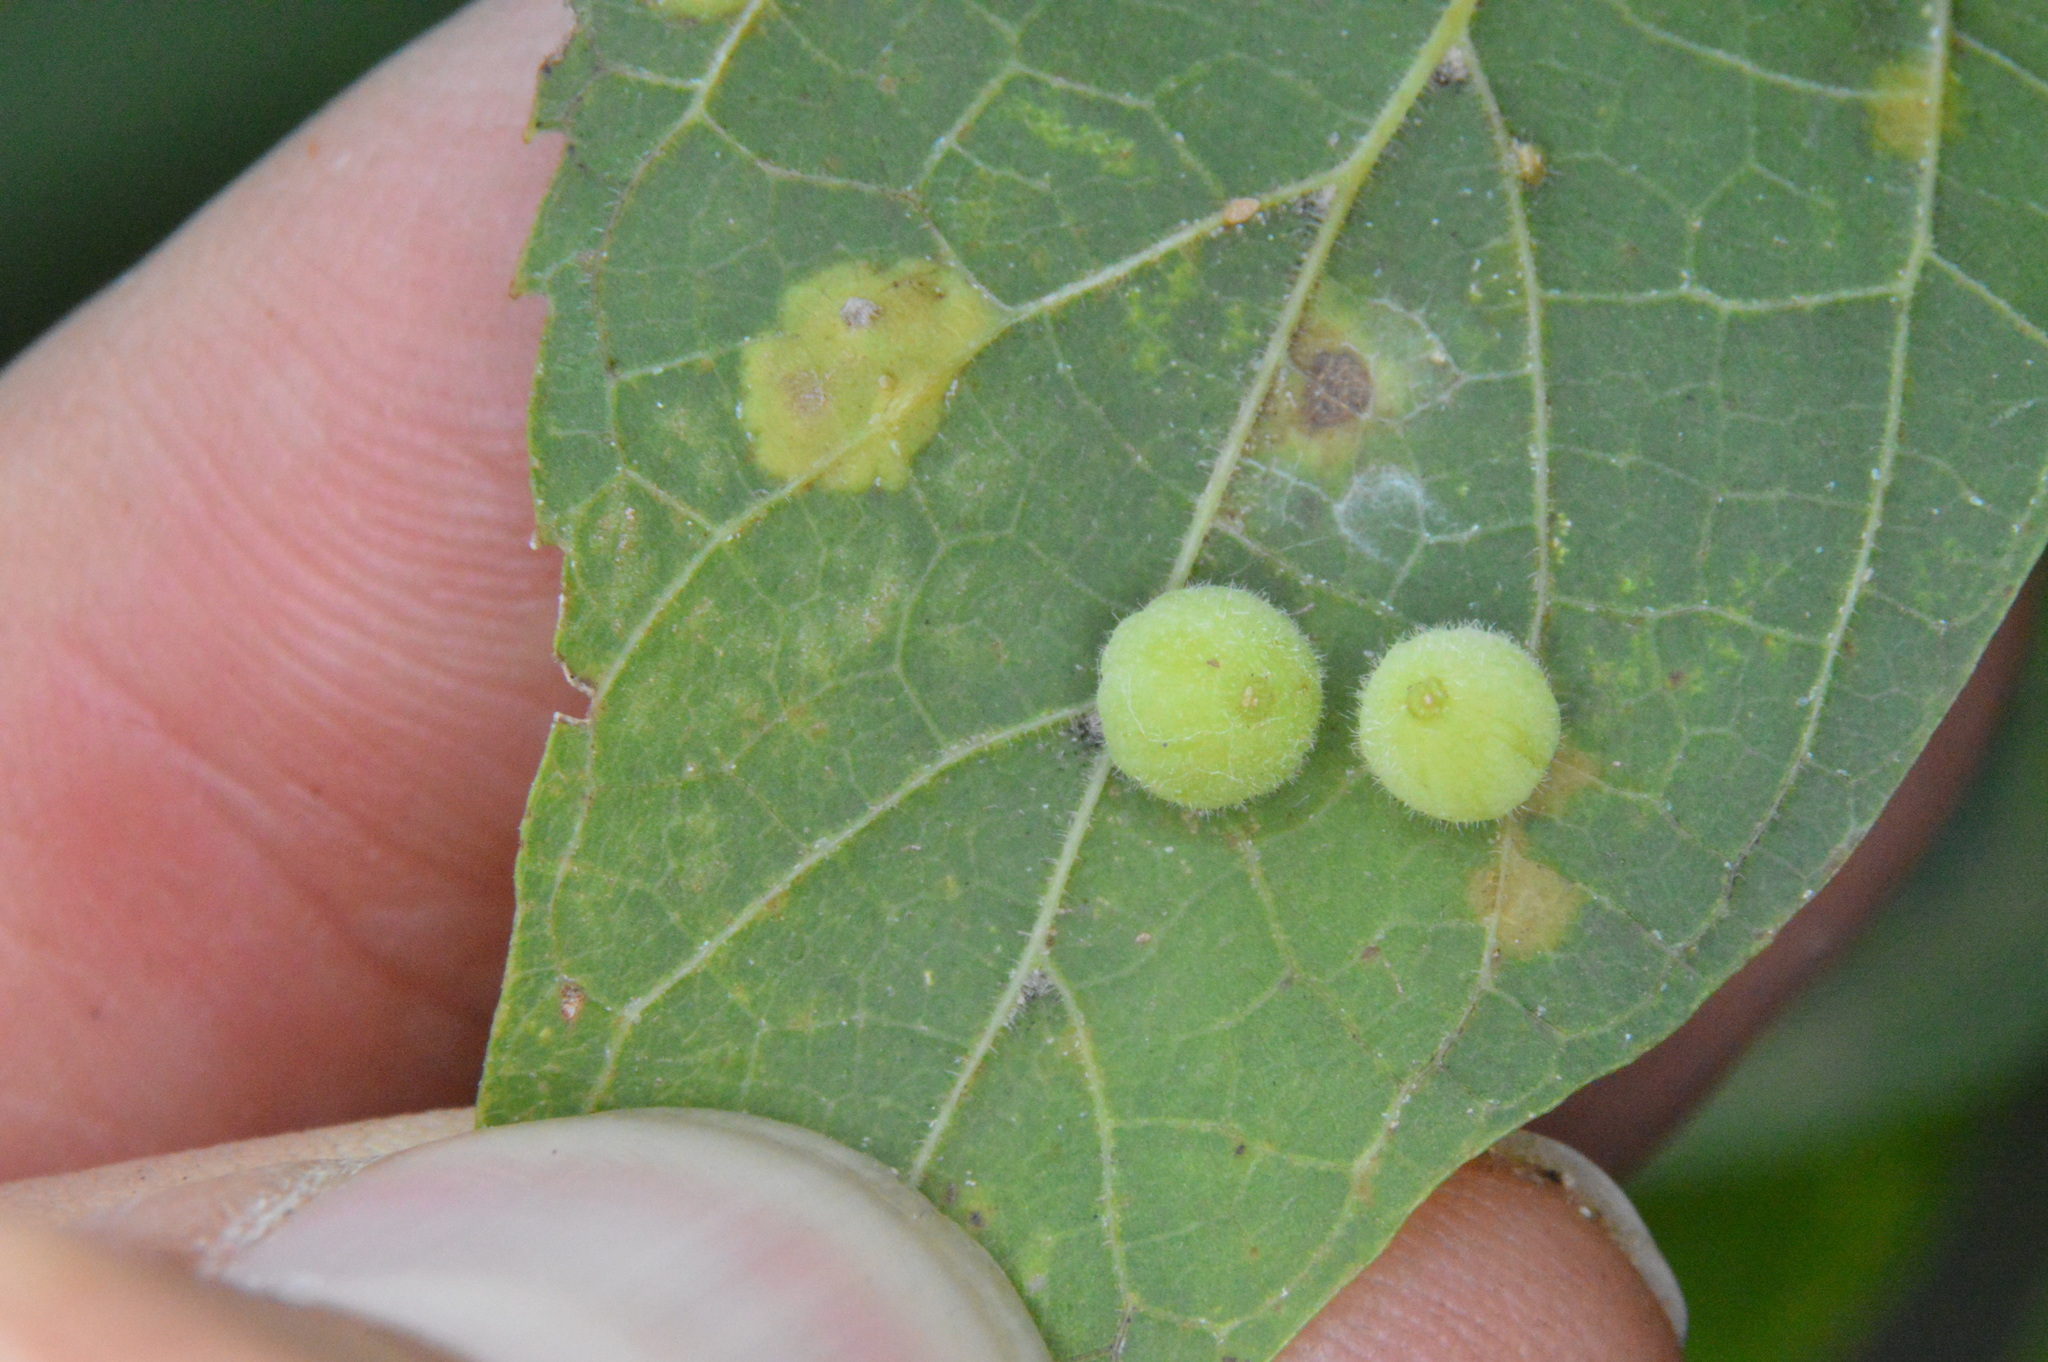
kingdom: Animalia
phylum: Arthropoda
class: Insecta
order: Diptera
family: Cecidomyiidae
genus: Celticecis
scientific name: Celticecis globosa
